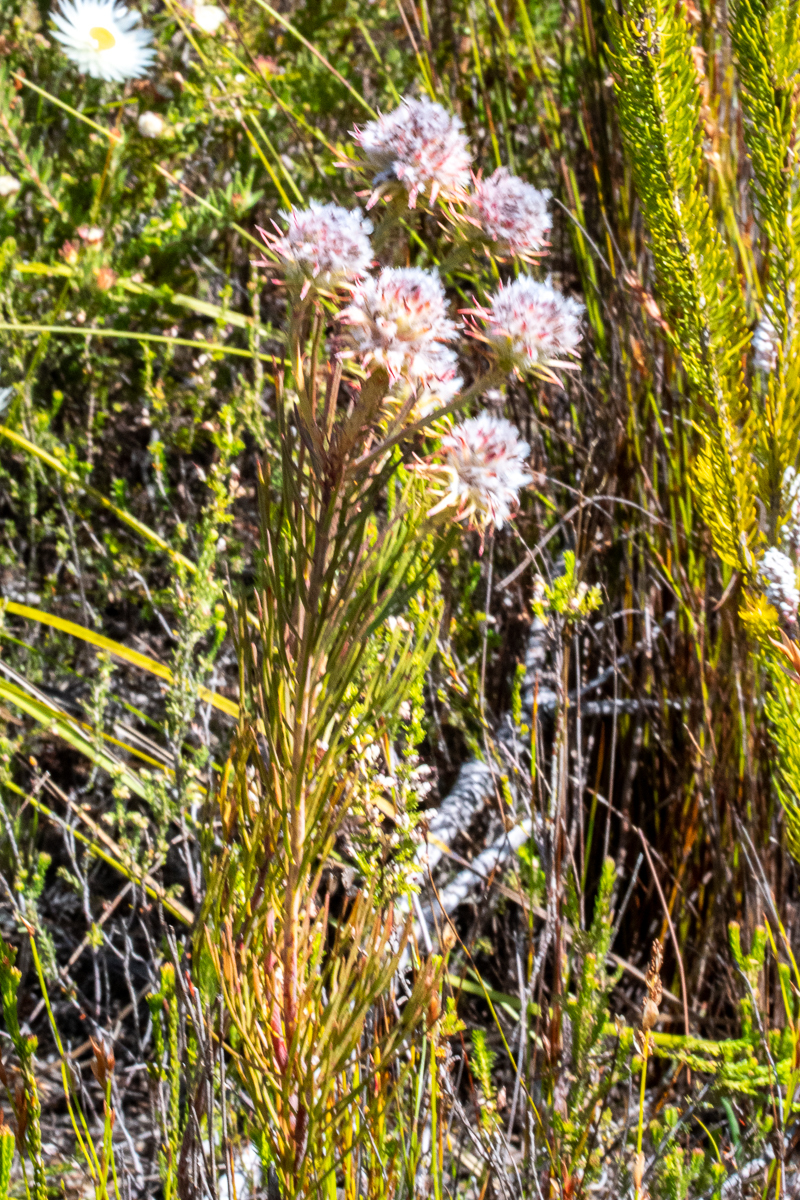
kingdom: Plantae
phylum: Tracheophyta
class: Magnoliopsida
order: Proteales
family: Proteaceae
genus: Serruria
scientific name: Serruria phylicoides
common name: Bearded spiderhead
